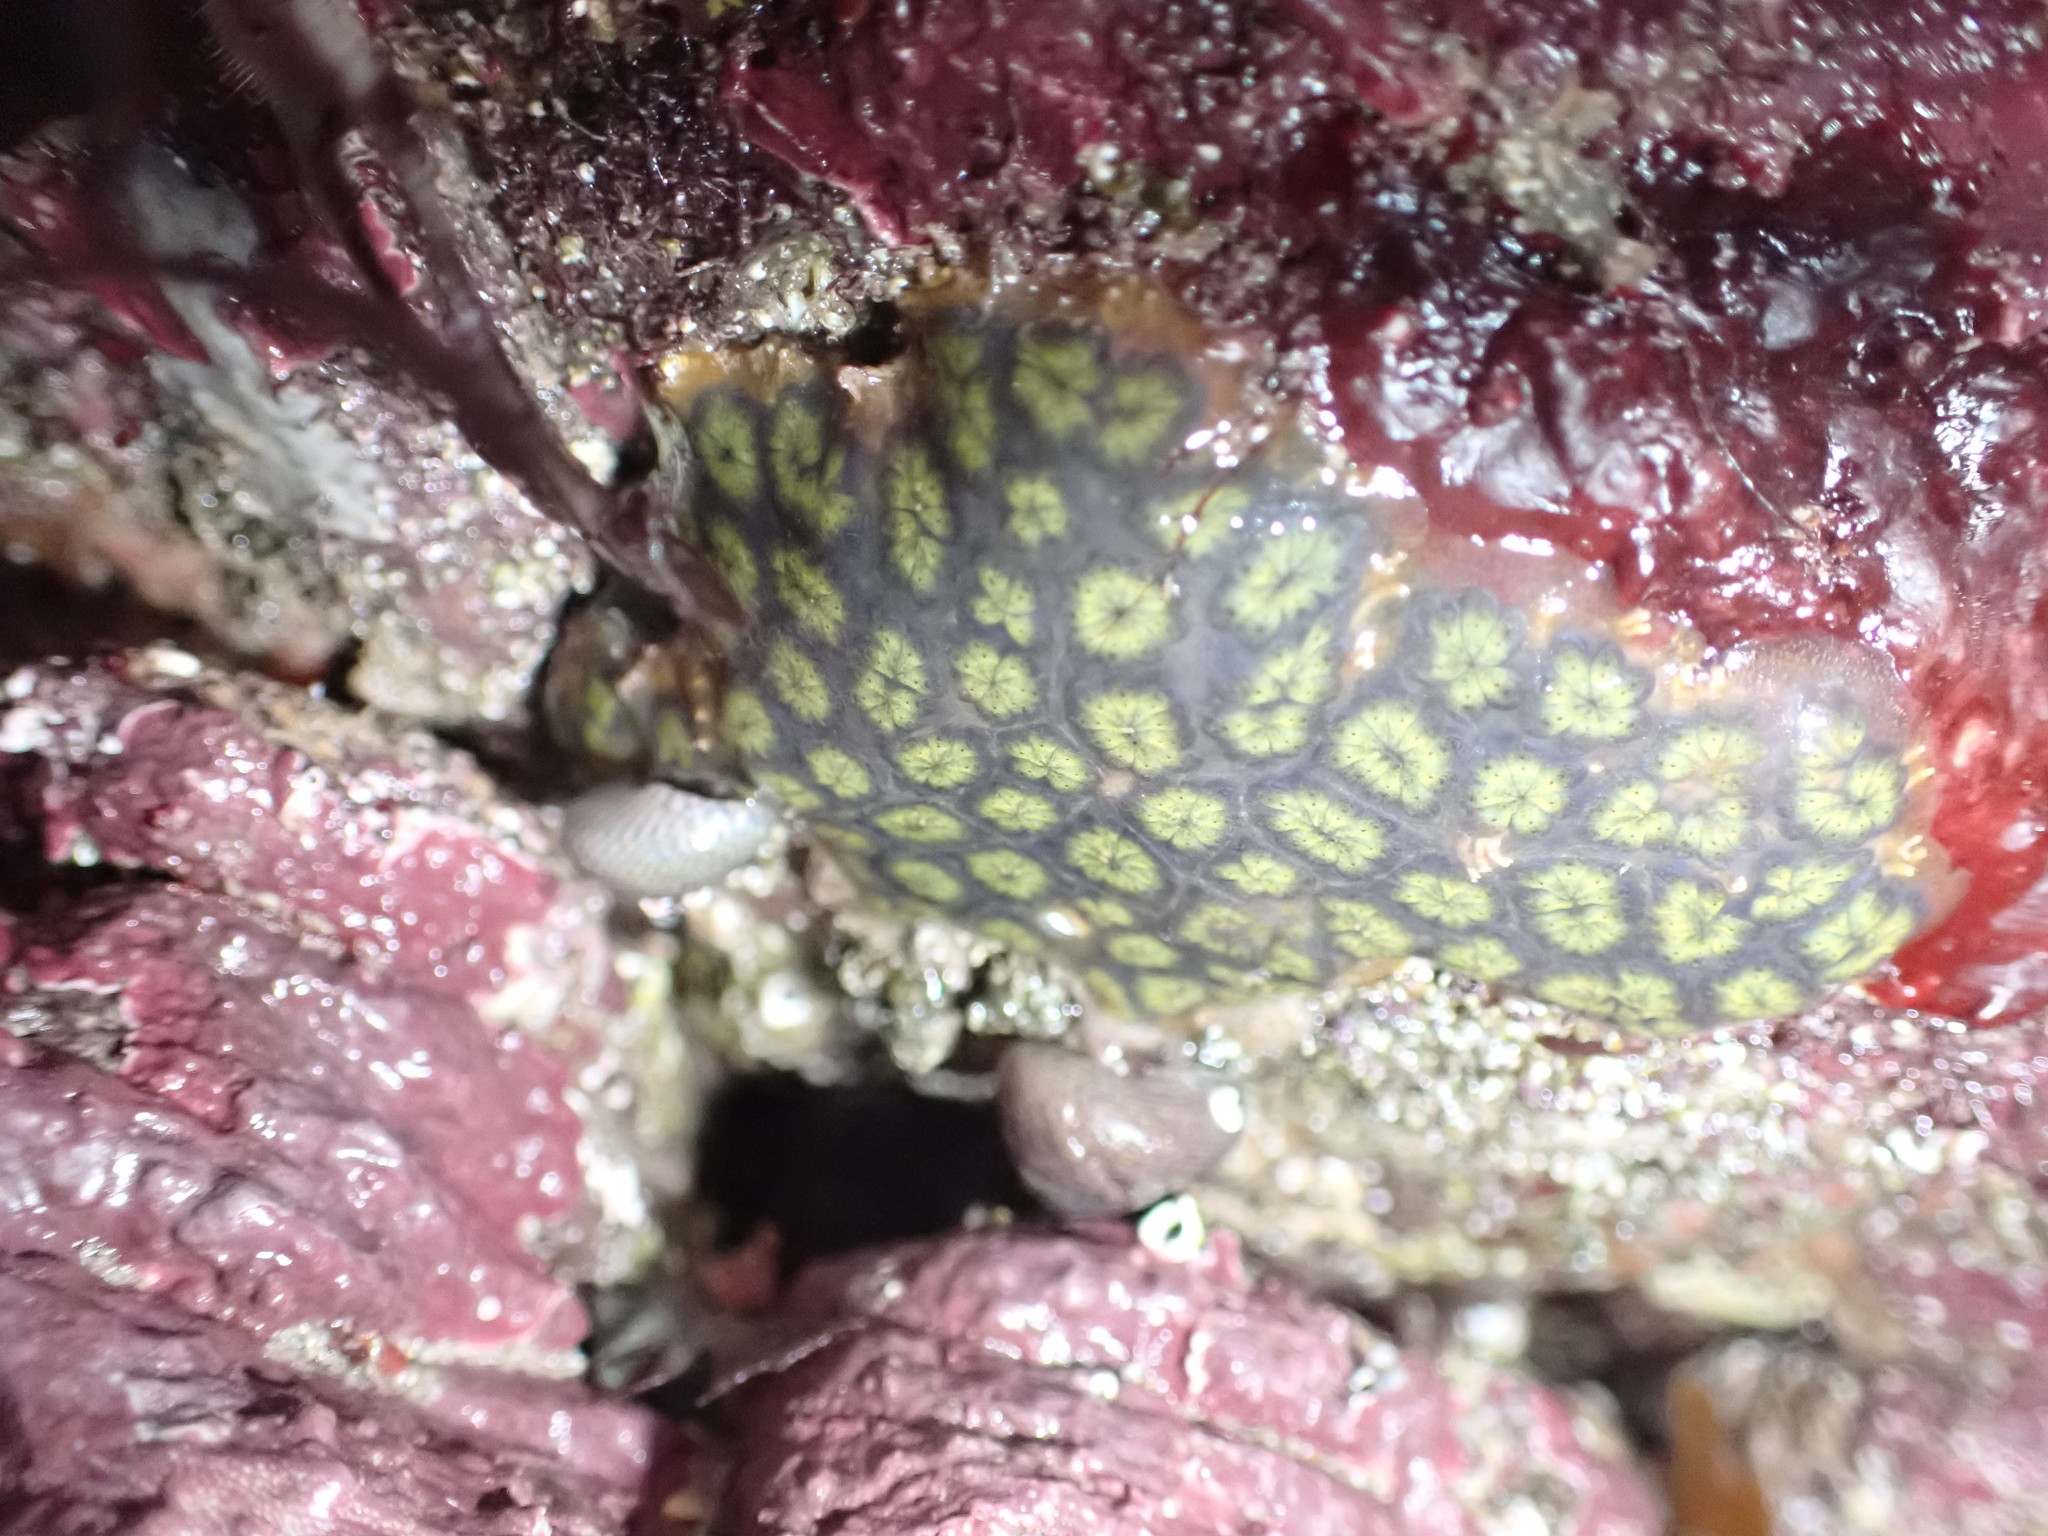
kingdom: Animalia
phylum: Chordata
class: Ascidiacea
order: Stolidobranchia
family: Styelidae
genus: Botryllus
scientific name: Botryllus schlosseri
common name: Golden star tunicate
